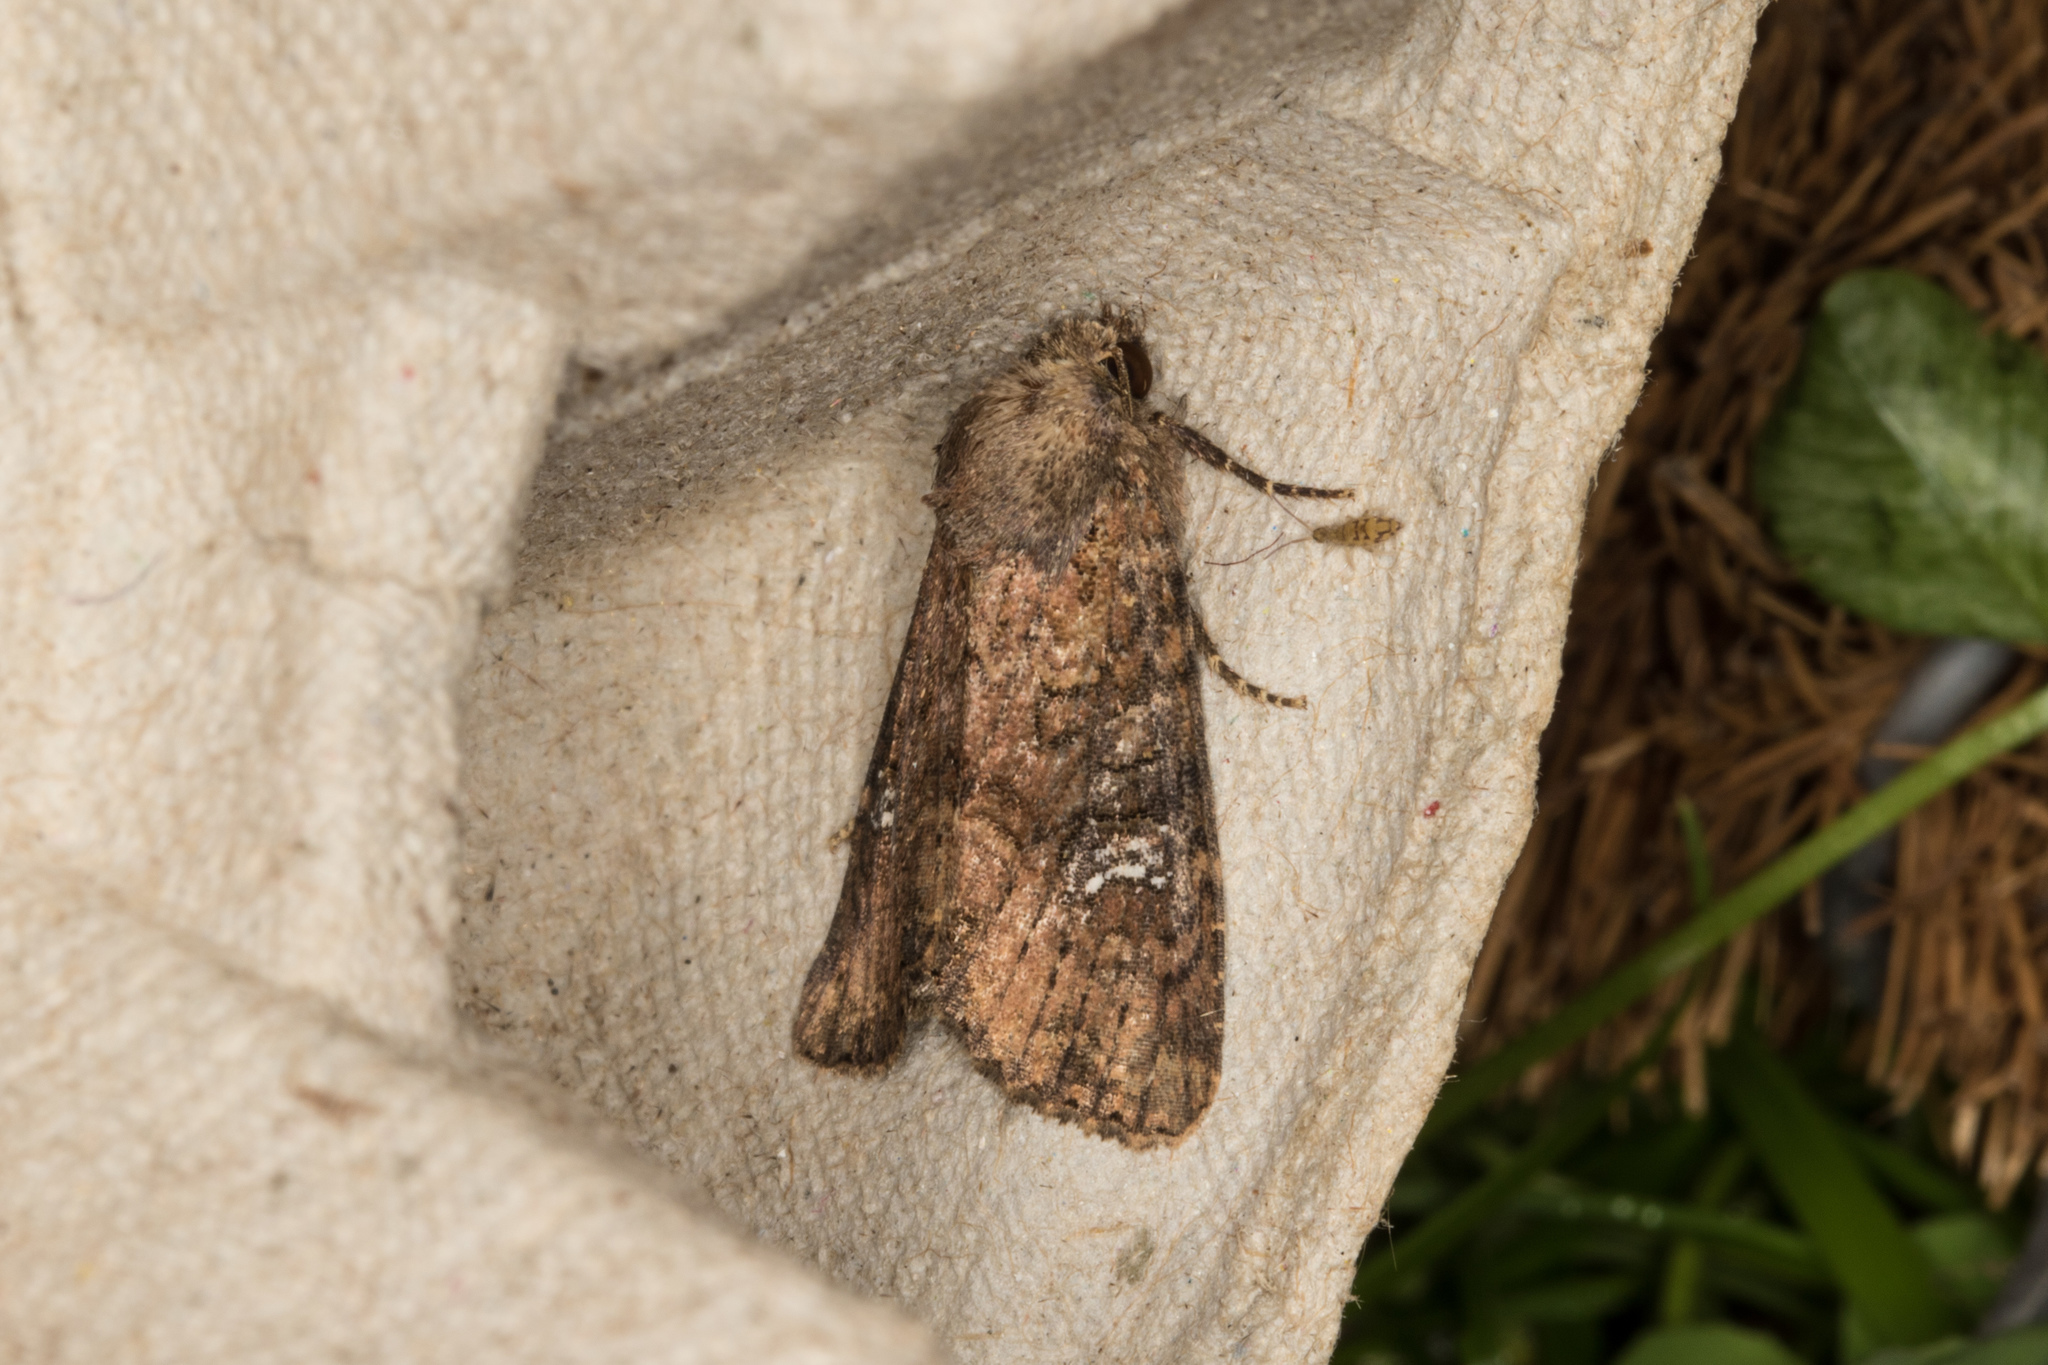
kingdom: Animalia
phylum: Arthropoda
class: Insecta
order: Lepidoptera
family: Noctuidae
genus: Mesapamea
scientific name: Mesapamea
